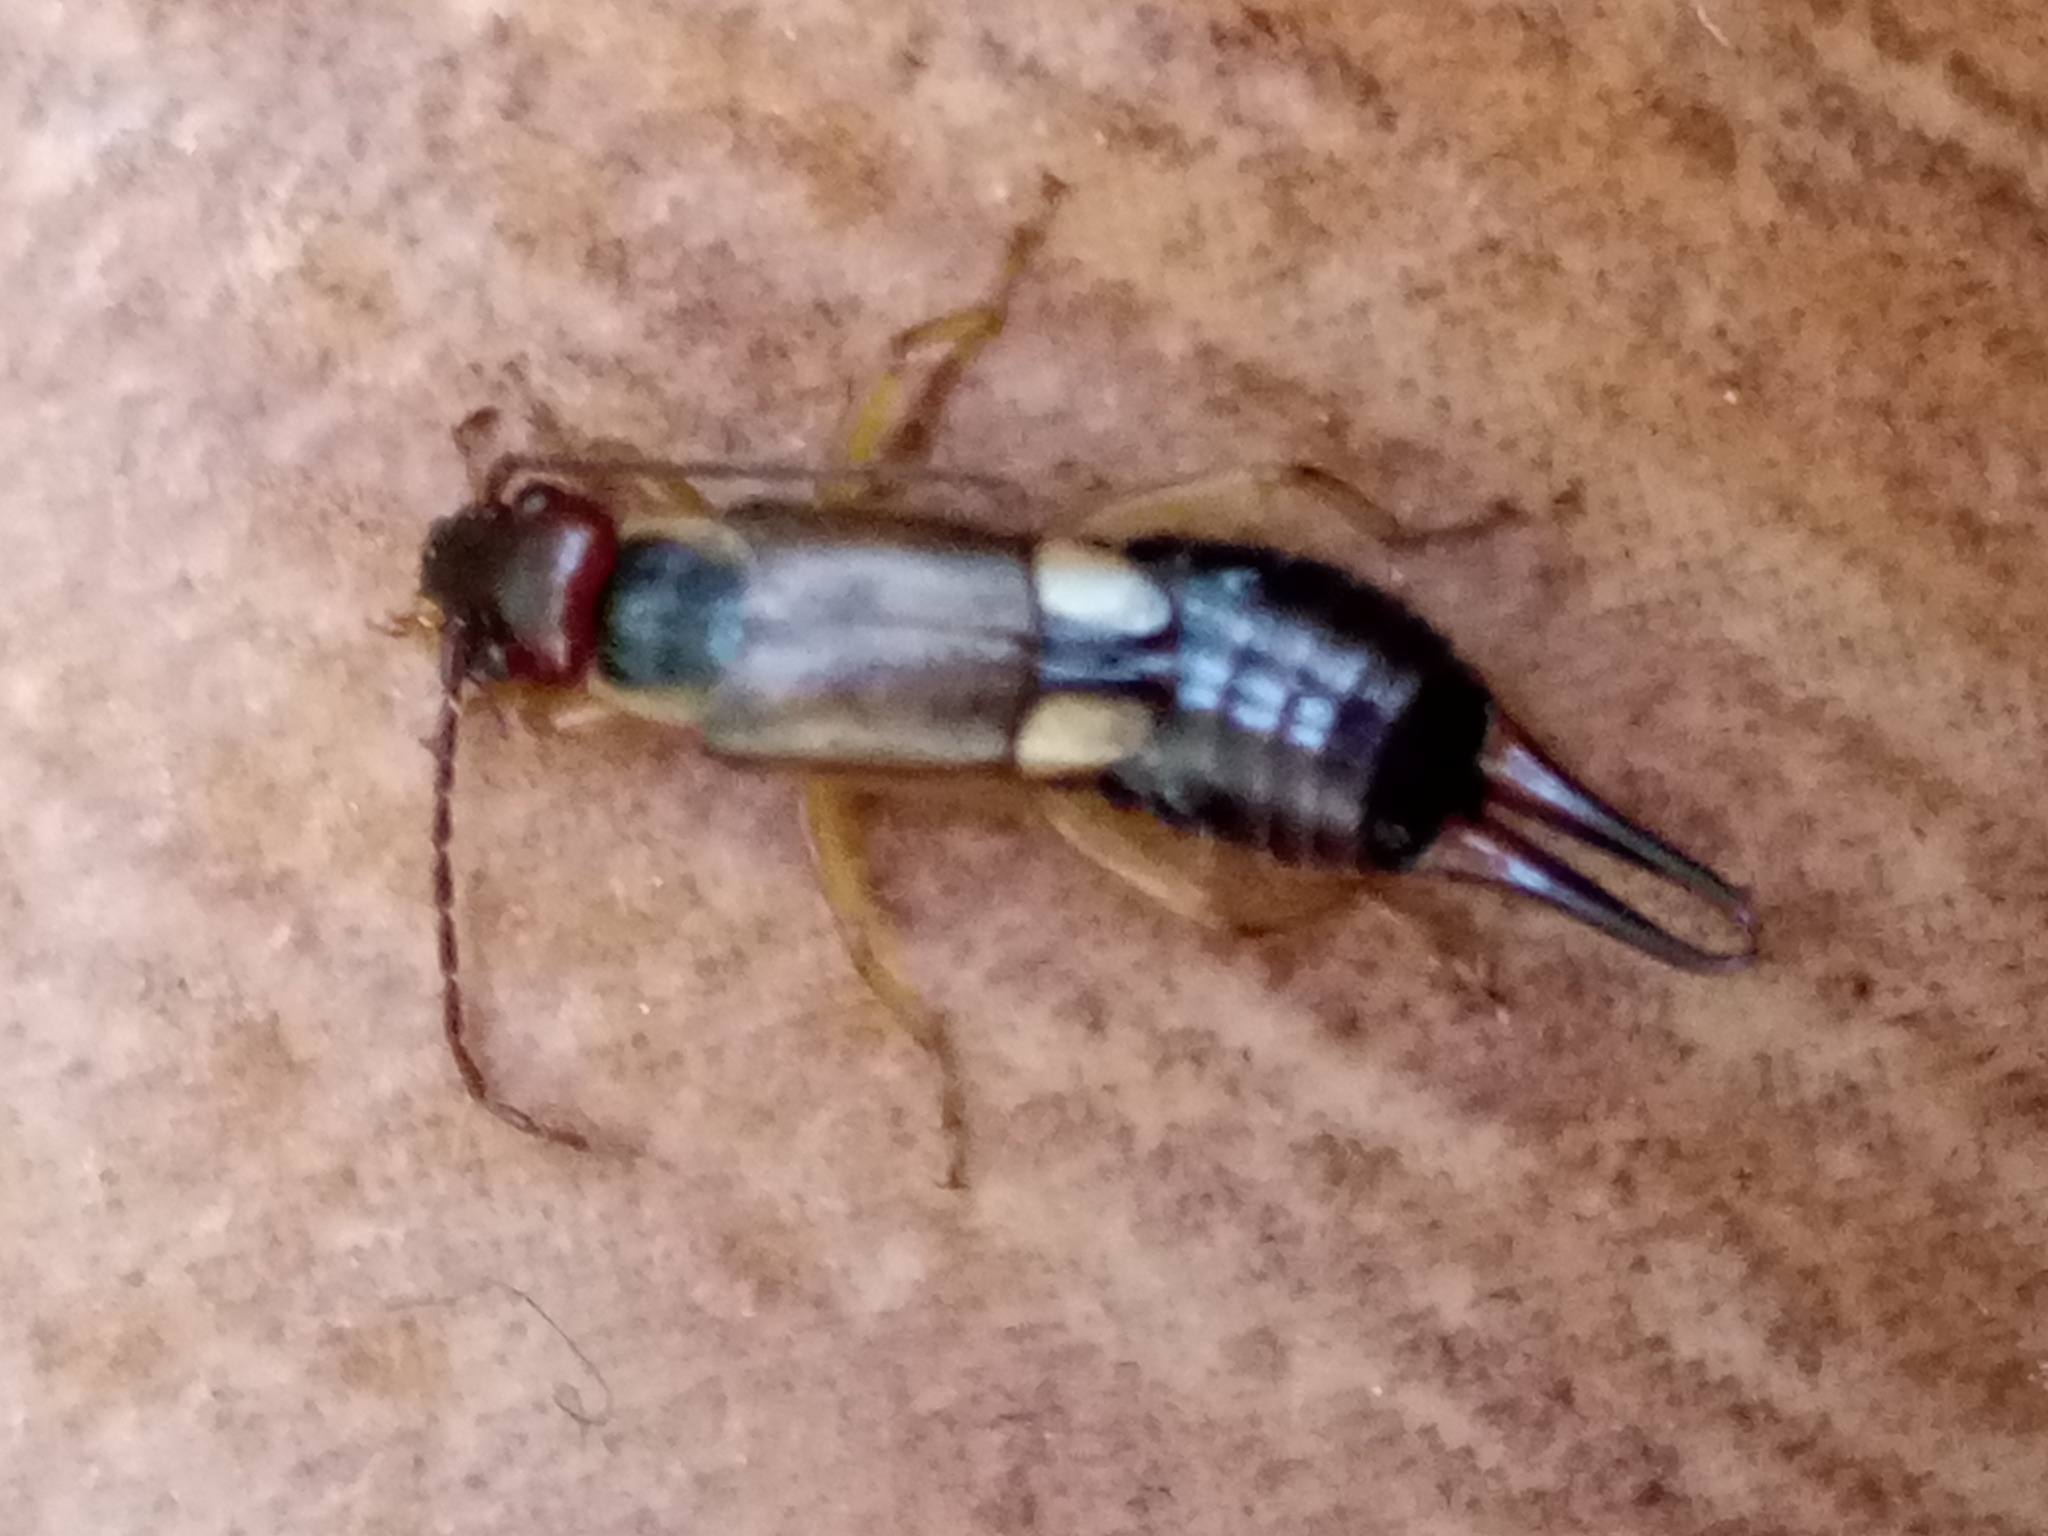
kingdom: Animalia
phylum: Arthropoda
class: Insecta
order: Dermaptera
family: Forficulidae
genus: Forficula
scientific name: Forficula
